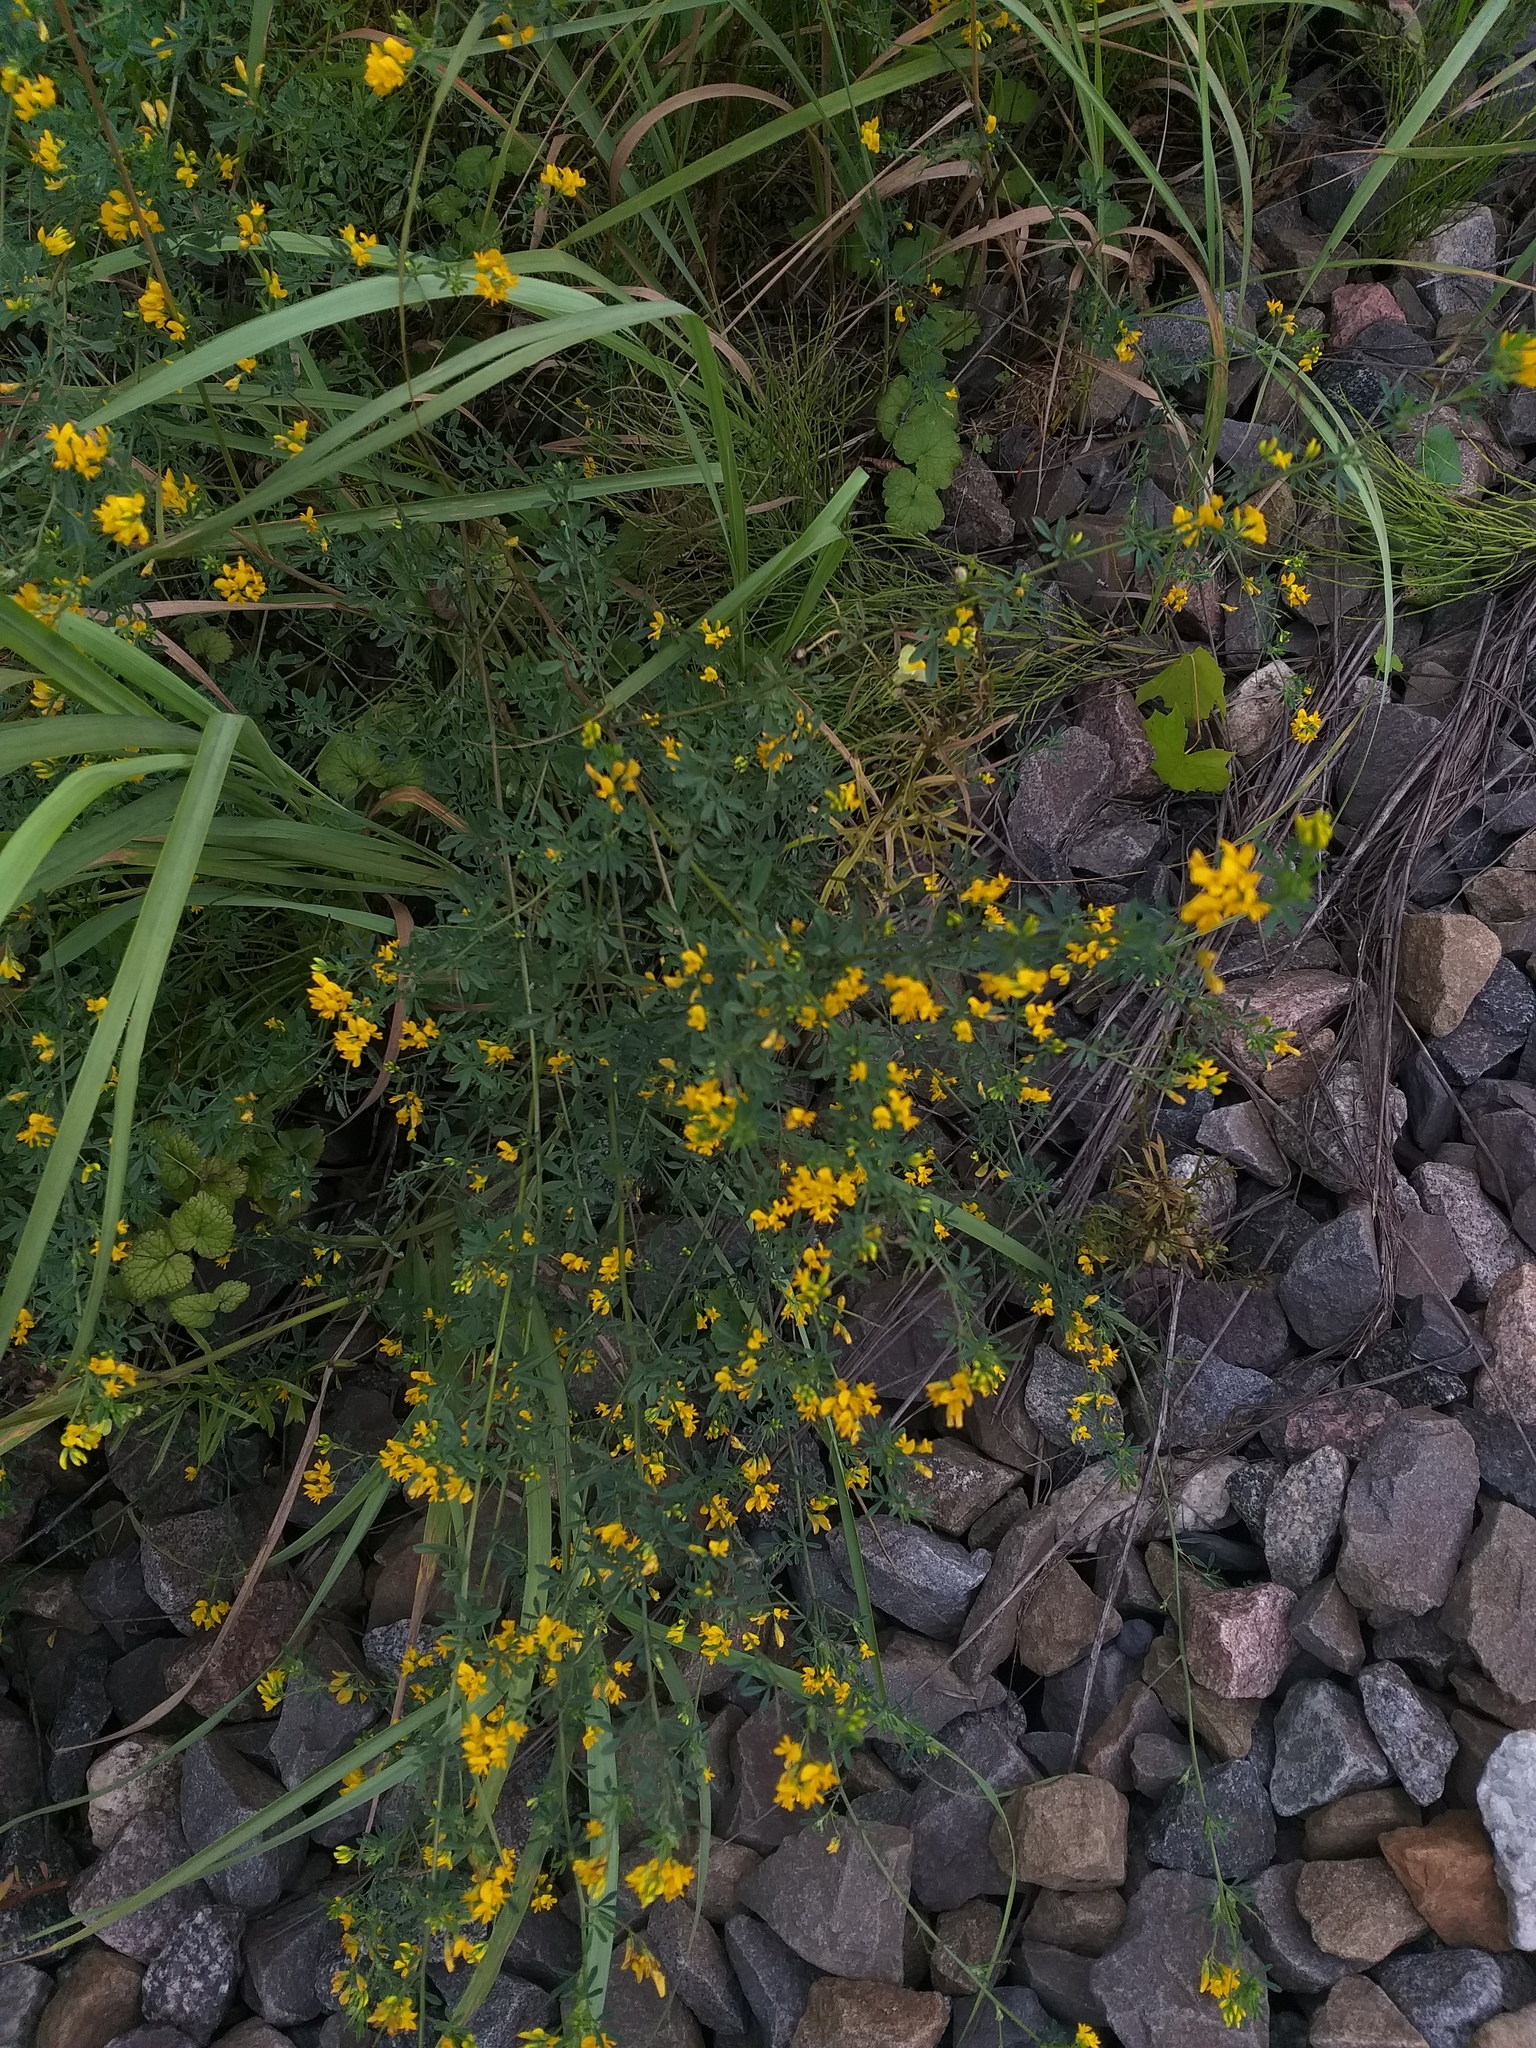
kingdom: Plantae
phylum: Tracheophyta
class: Magnoliopsida
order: Fabales
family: Fabaceae
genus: Medicago
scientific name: Medicago falcata
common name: Sickle medick
